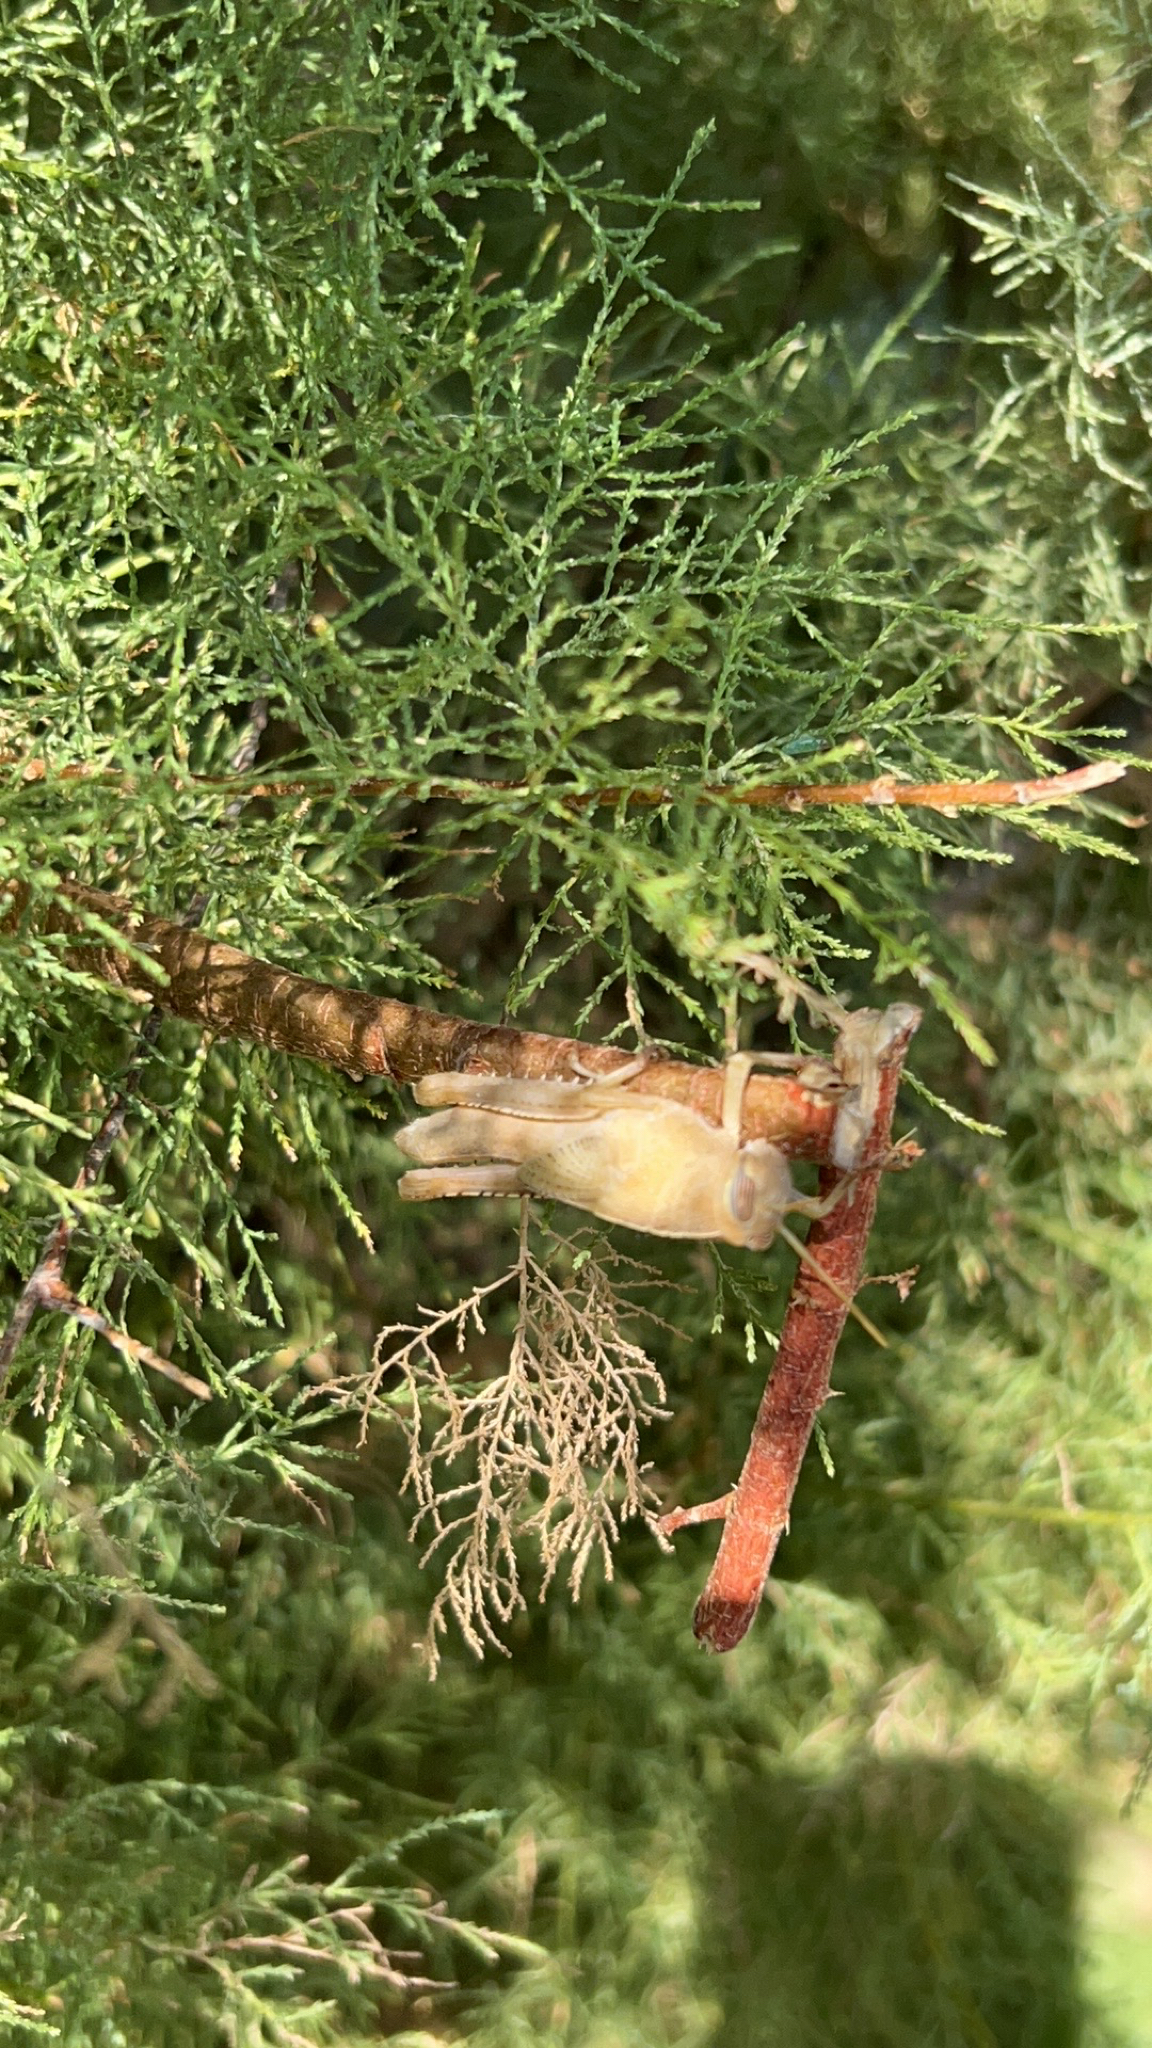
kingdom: Animalia
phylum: Arthropoda
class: Insecta
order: Orthoptera
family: Acrididae
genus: Anacridium
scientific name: Anacridium aegyptium
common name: Egyptian grasshopper
